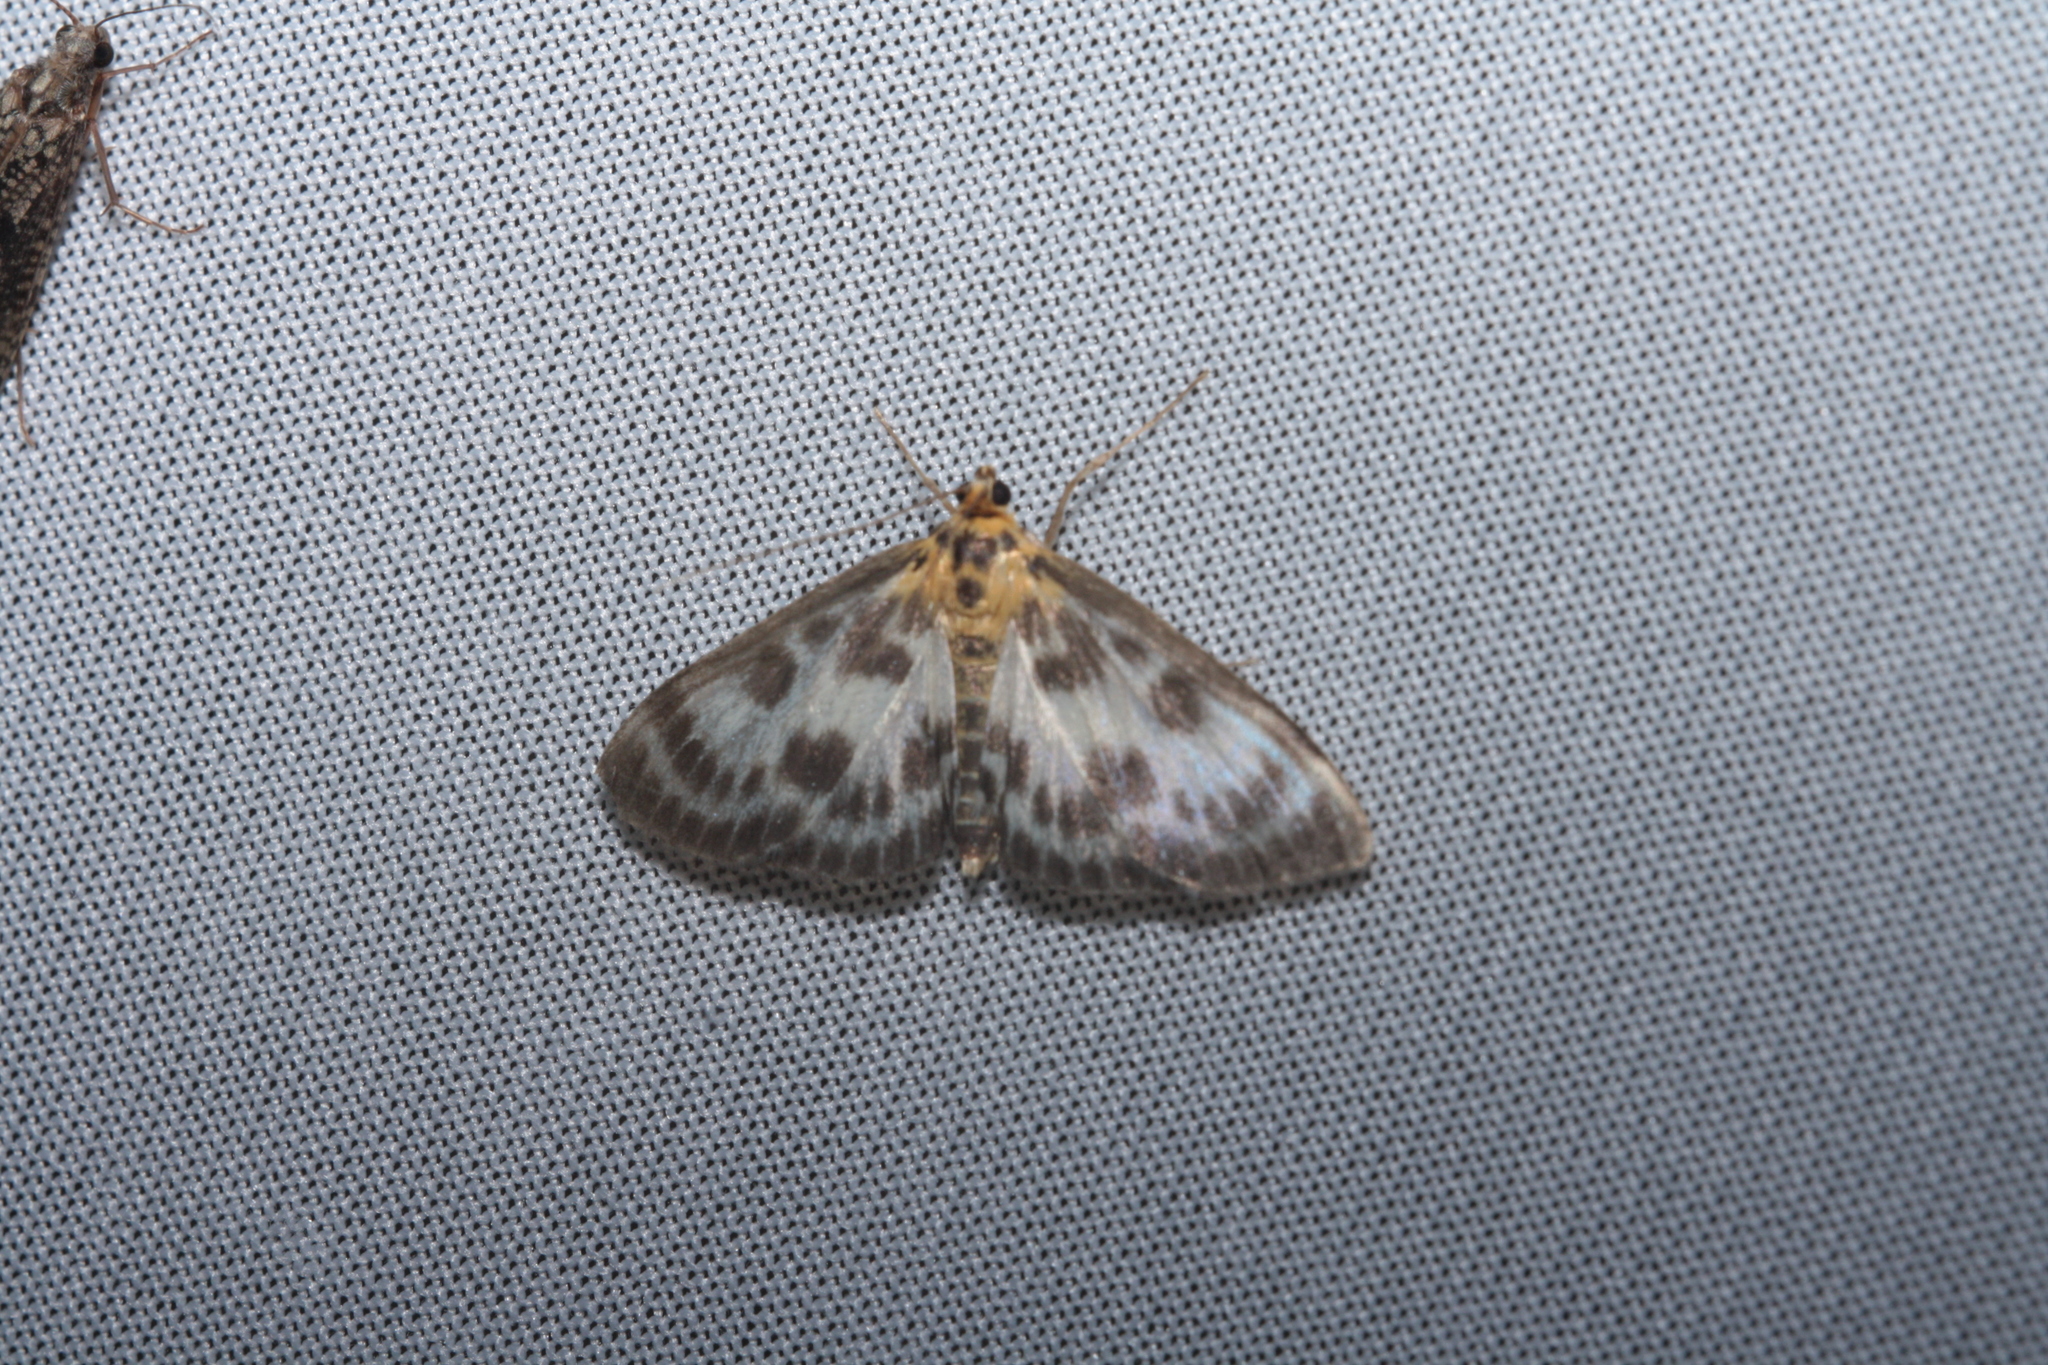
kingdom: Animalia
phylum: Arthropoda
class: Insecta
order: Lepidoptera
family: Crambidae
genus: Anania
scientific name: Anania hortulata
